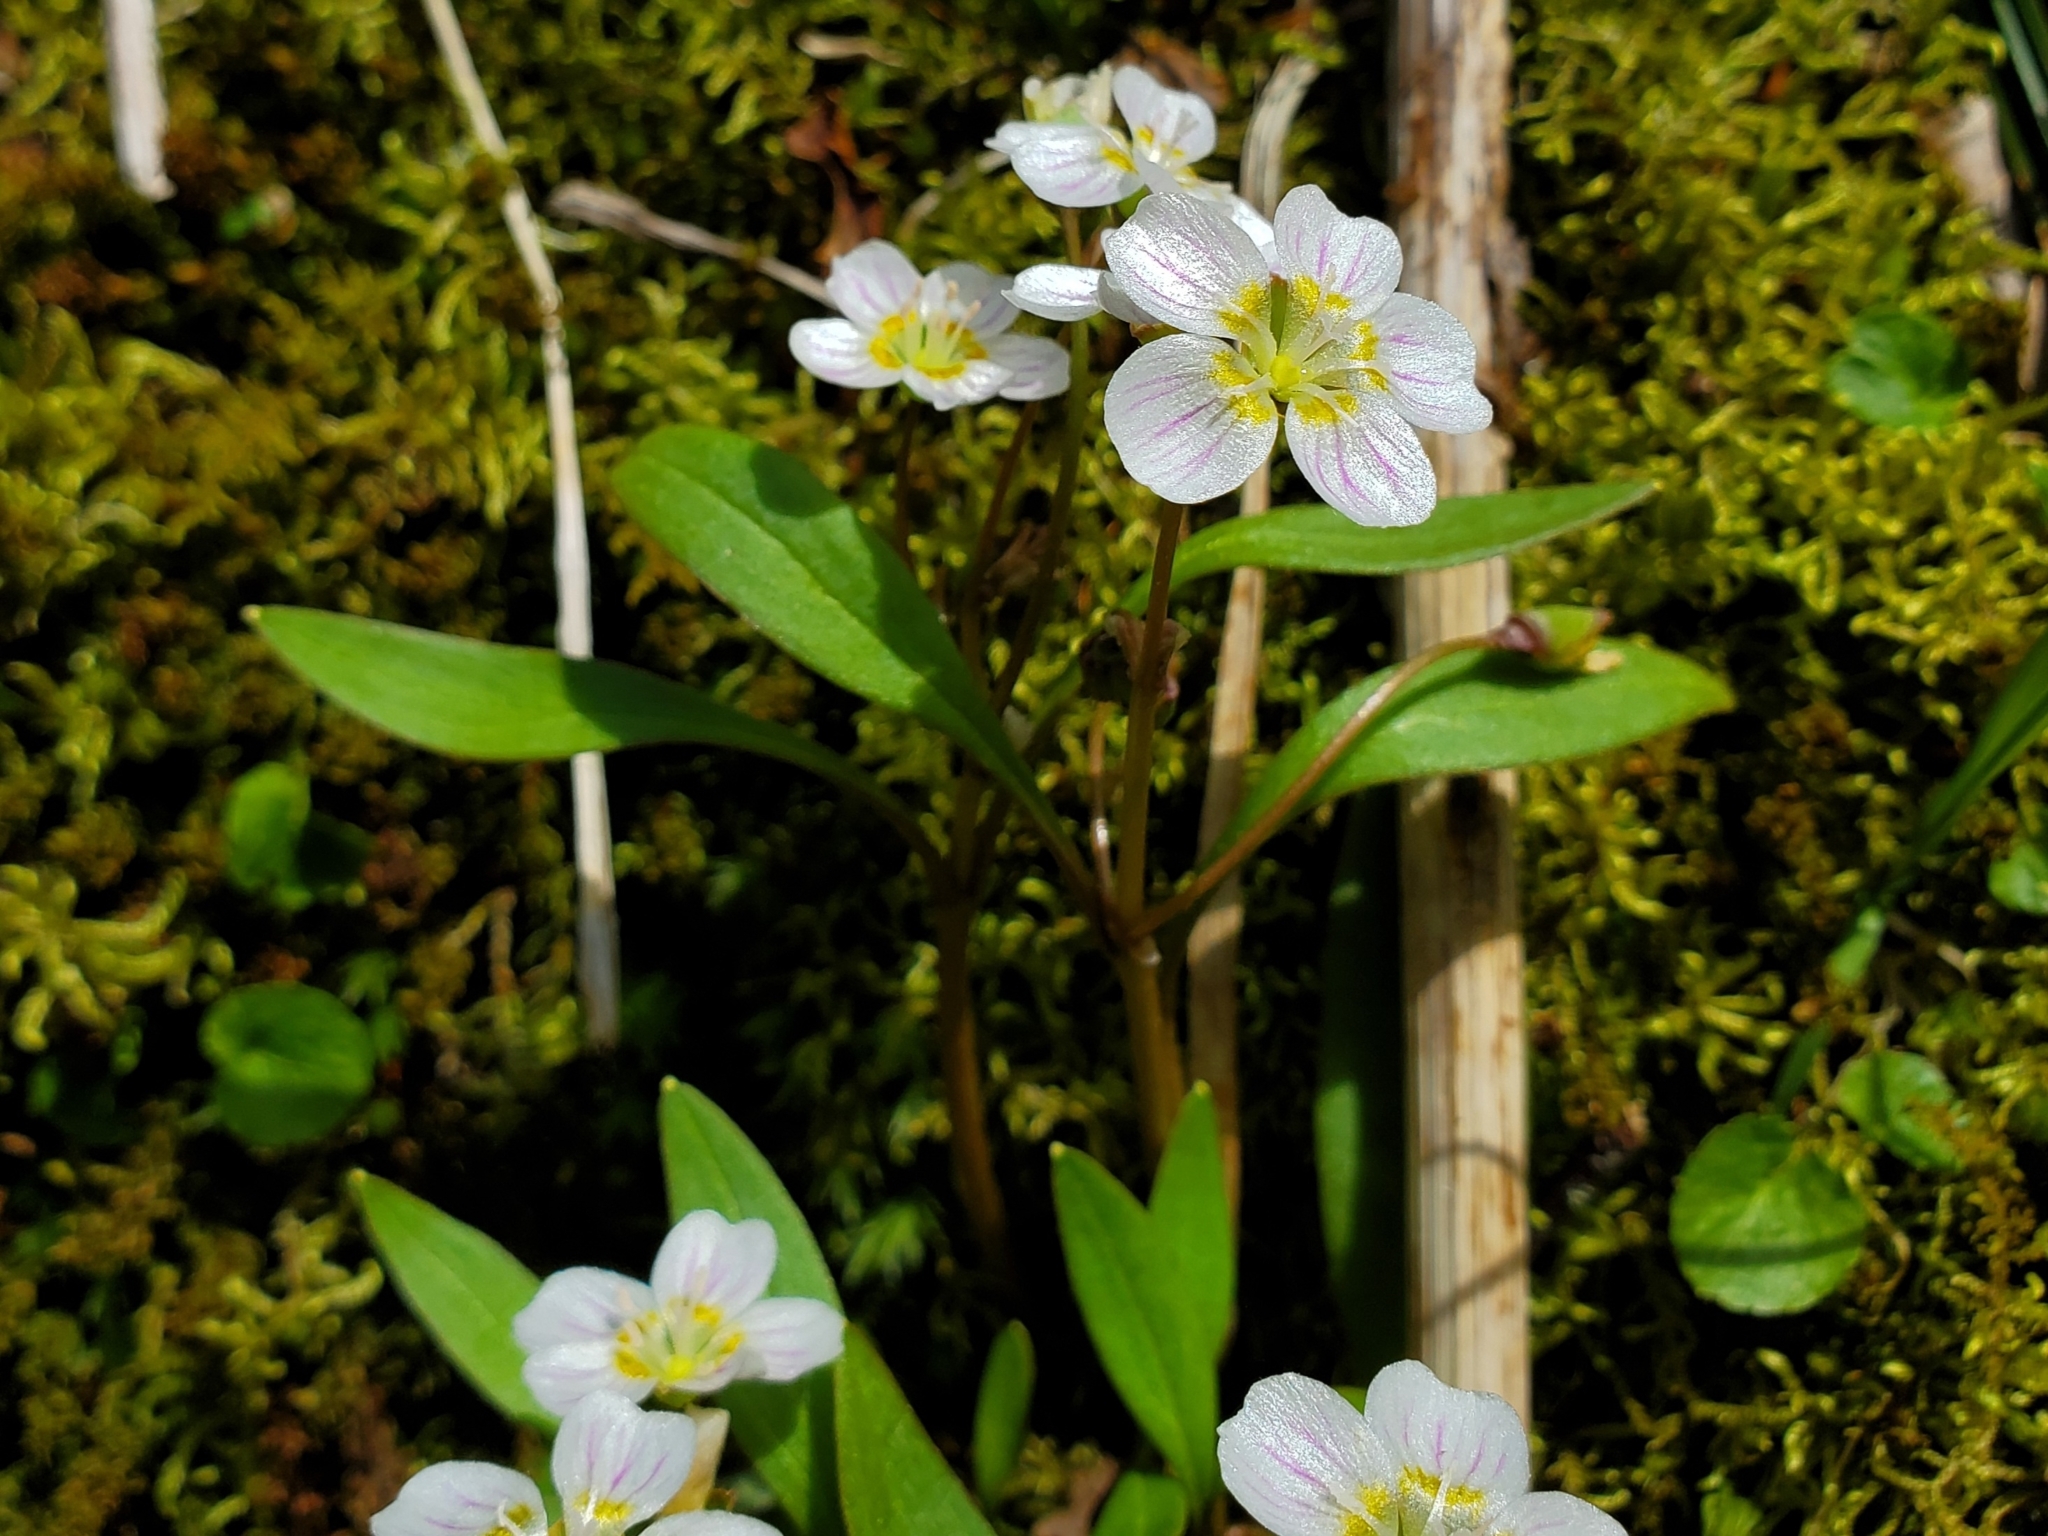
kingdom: Plantae
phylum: Tracheophyta
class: Magnoliopsida
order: Caryophyllales
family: Montiaceae
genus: Claytonia
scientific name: Claytonia caroliniana
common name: Carolina spring beauty
